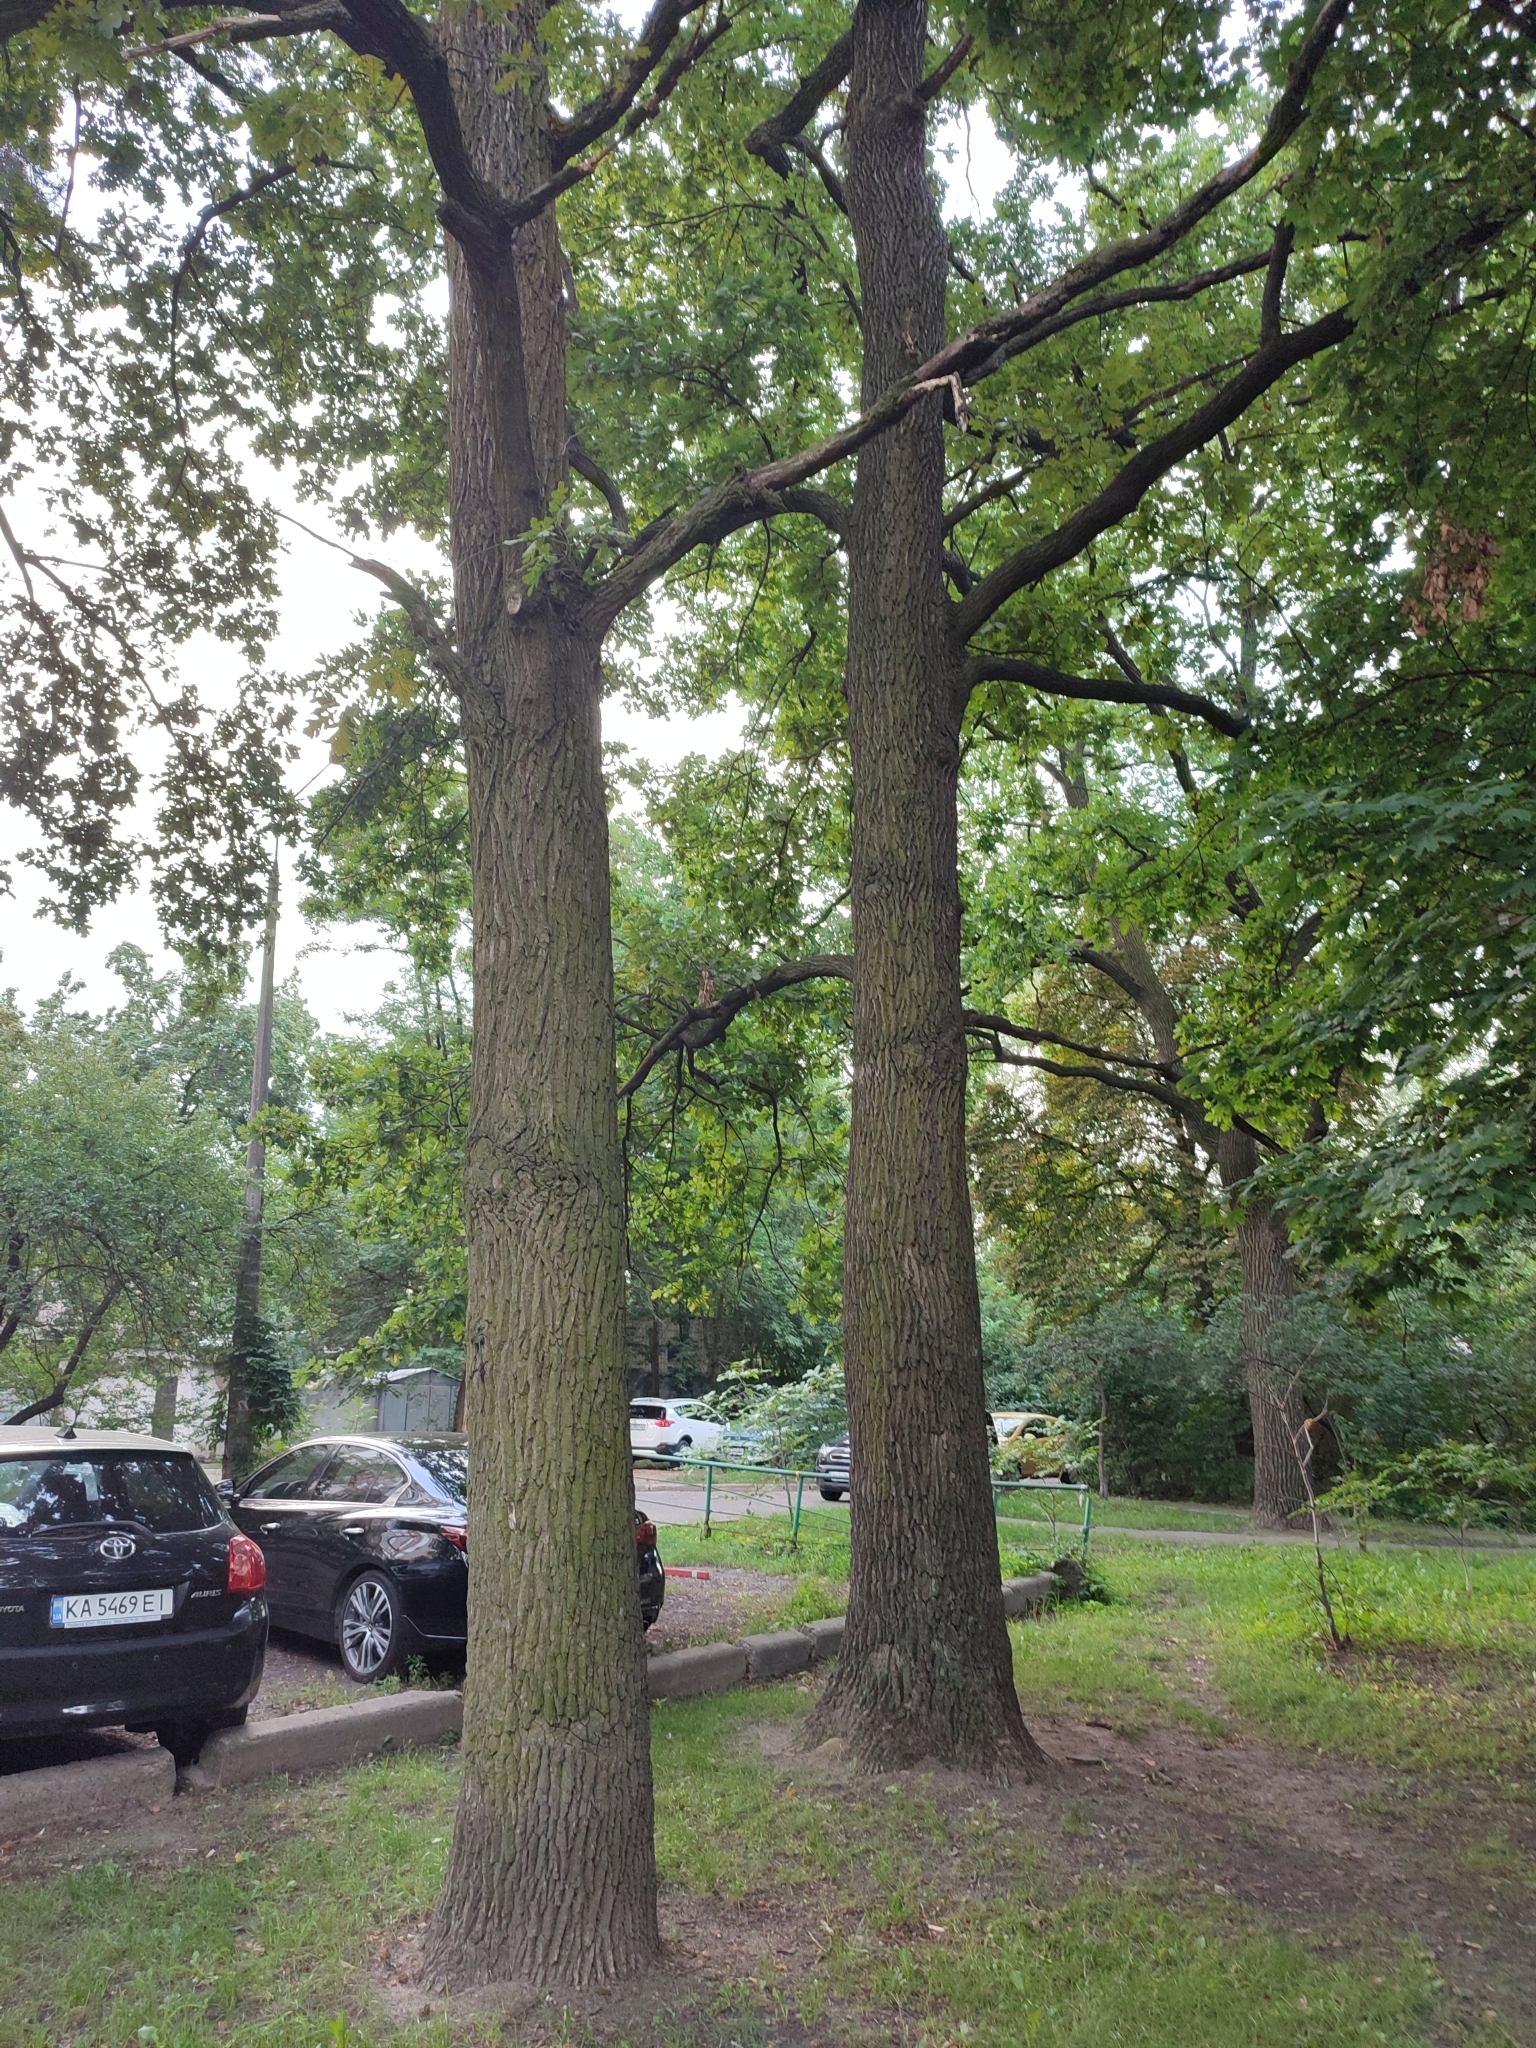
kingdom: Plantae
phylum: Tracheophyta
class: Magnoliopsida
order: Fagales
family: Fagaceae
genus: Quercus
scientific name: Quercus robur
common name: Pedunculate oak
